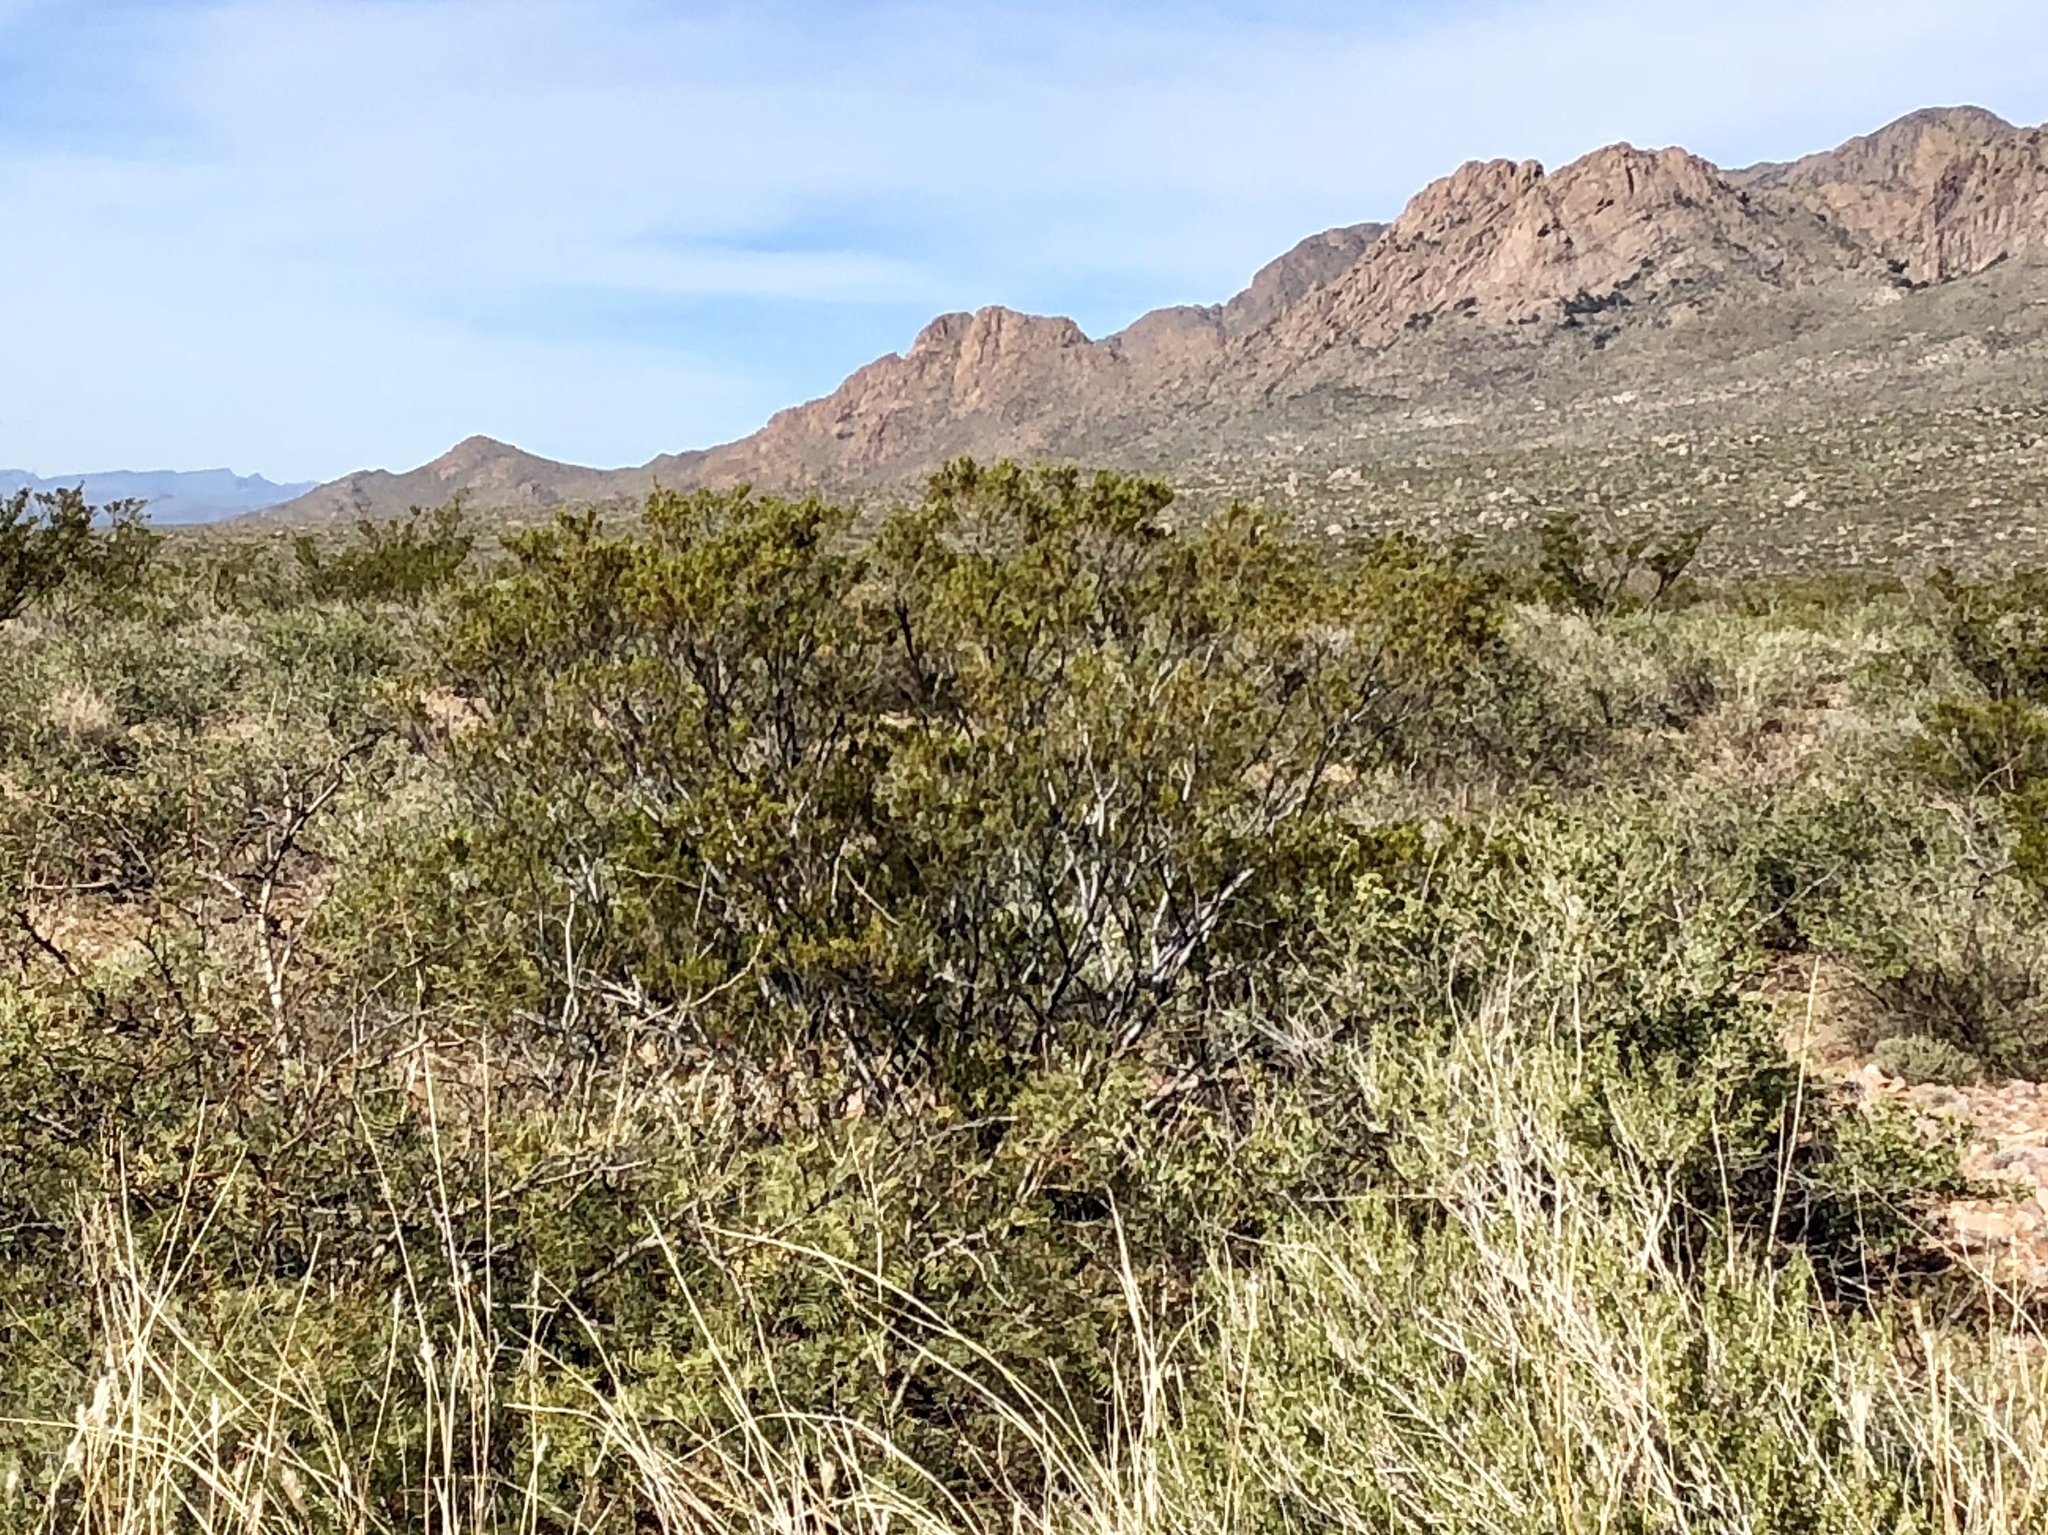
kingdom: Plantae
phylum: Tracheophyta
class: Magnoliopsida
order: Zygophyllales
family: Zygophyllaceae
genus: Larrea
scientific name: Larrea tridentata
